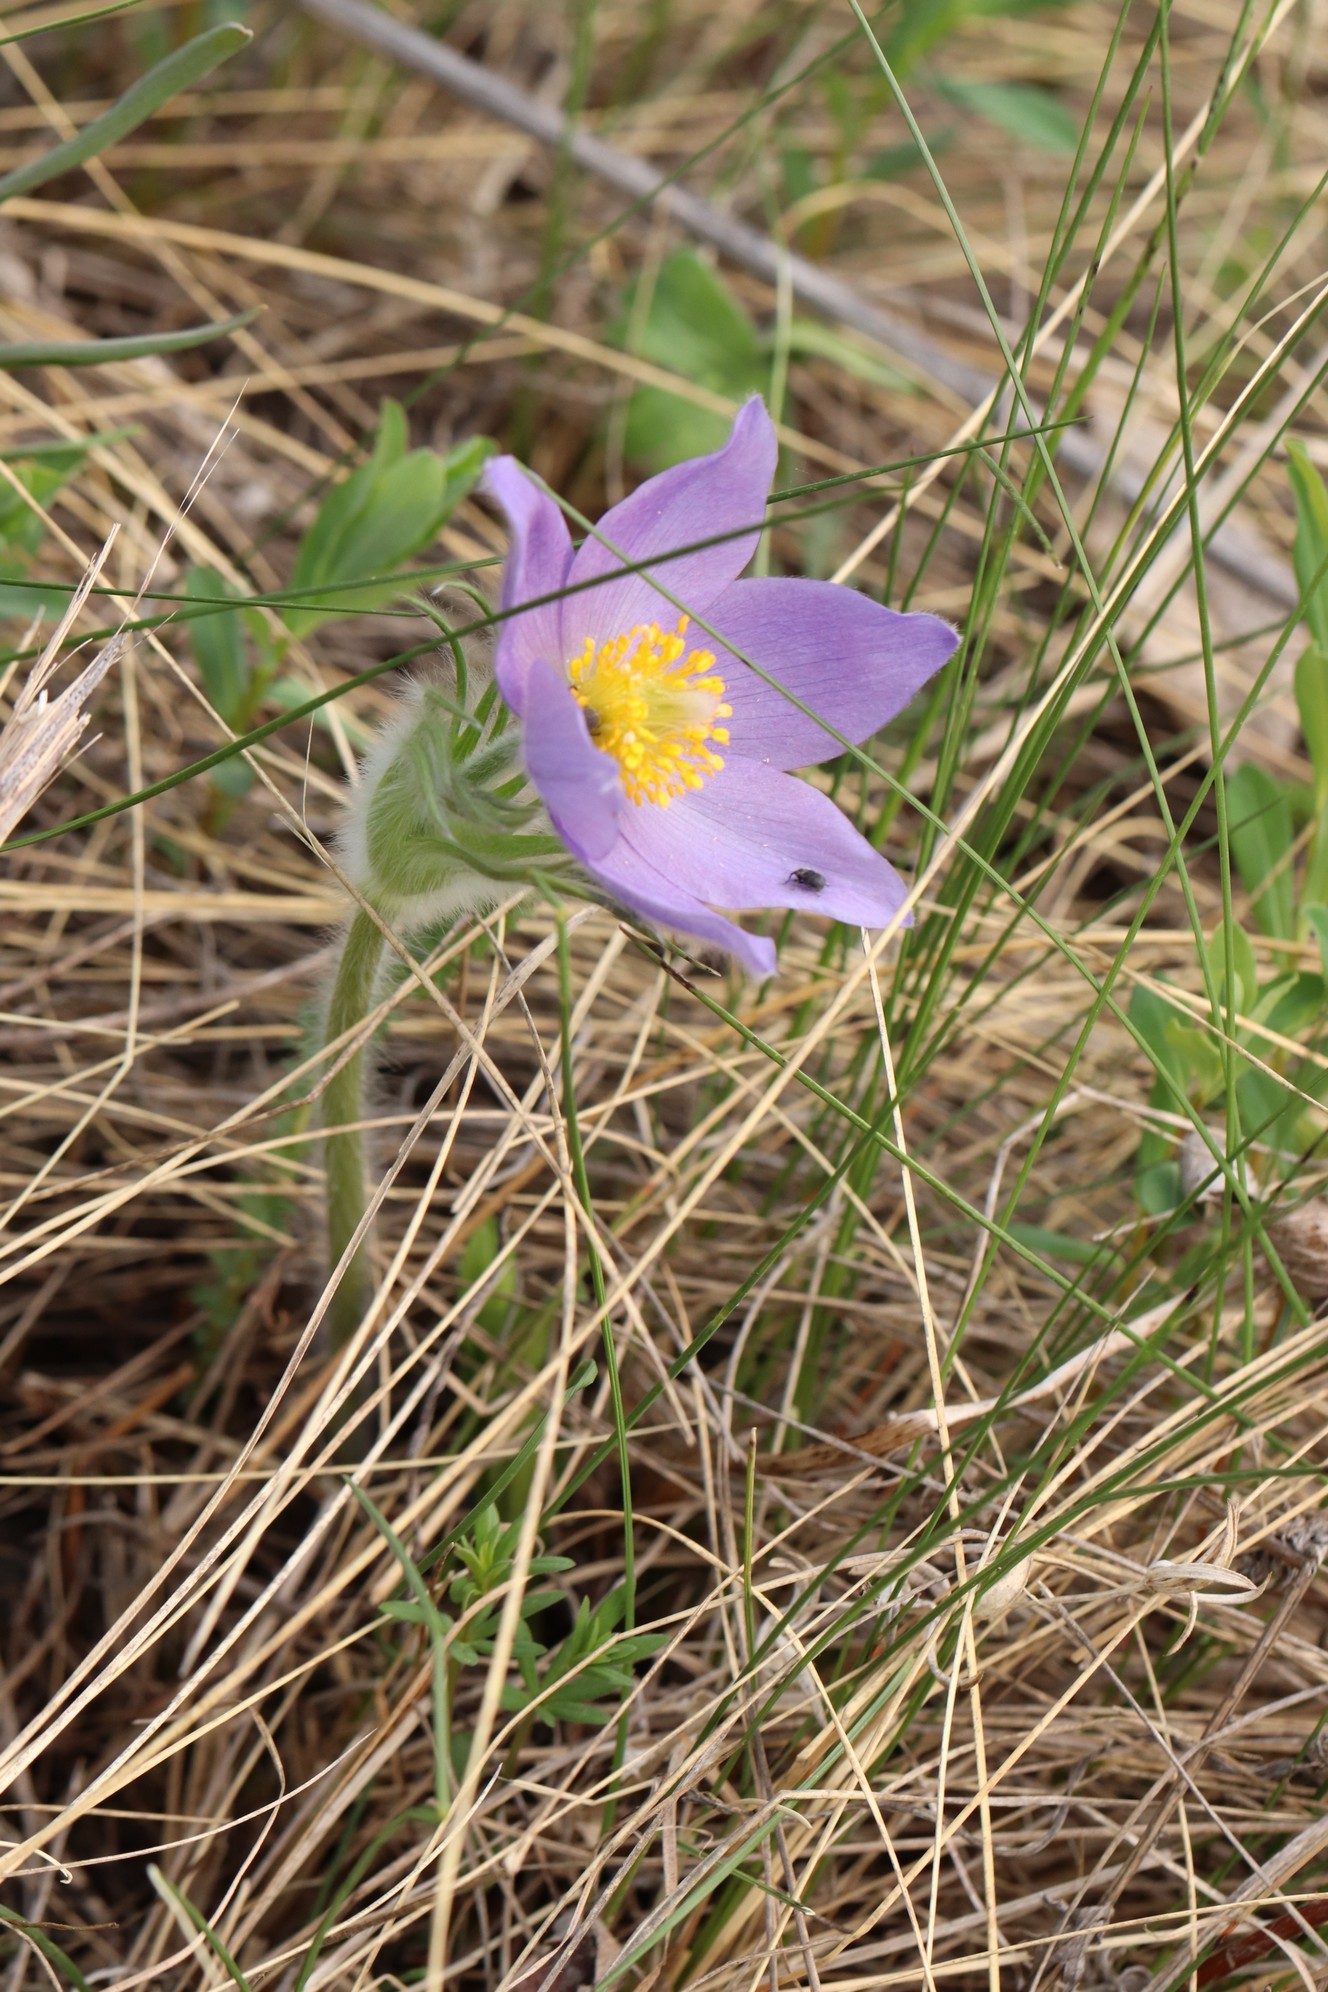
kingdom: Plantae
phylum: Tracheophyta
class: Magnoliopsida
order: Ranunculales
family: Ranunculaceae
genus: Pulsatilla
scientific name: Pulsatilla patens
